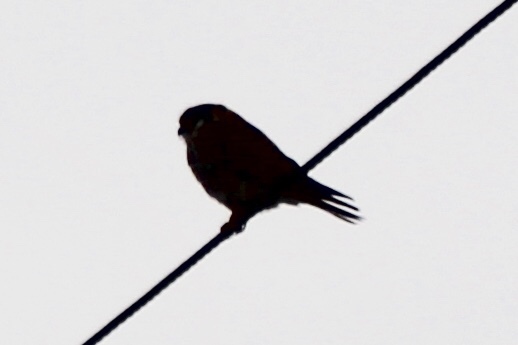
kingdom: Animalia
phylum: Chordata
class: Aves
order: Falconiformes
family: Falconidae
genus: Falco
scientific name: Falco sparverius
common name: American kestrel
